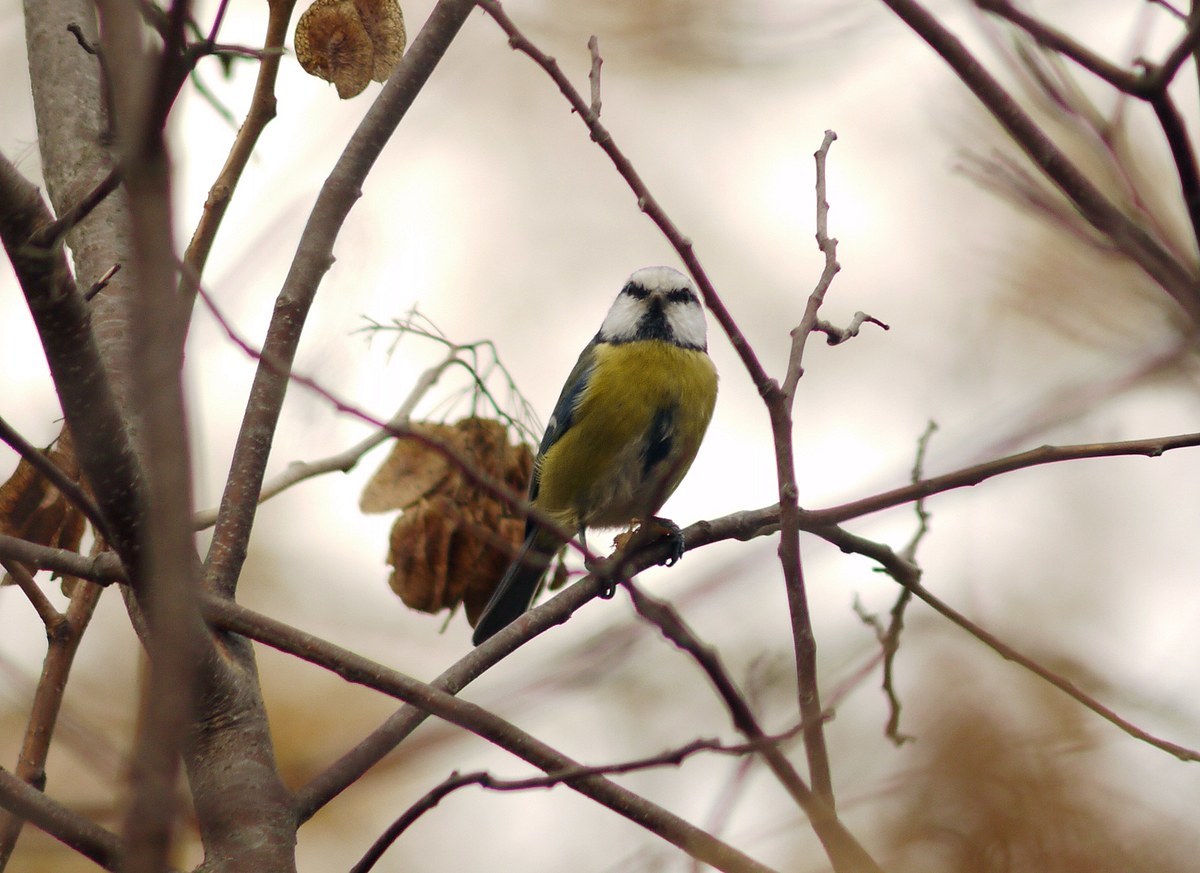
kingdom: Animalia
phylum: Chordata
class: Aves
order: Passeriformes
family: Paridae
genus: Cyanistes
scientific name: Cyanistes caeruleus
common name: Eurasian blue tit
